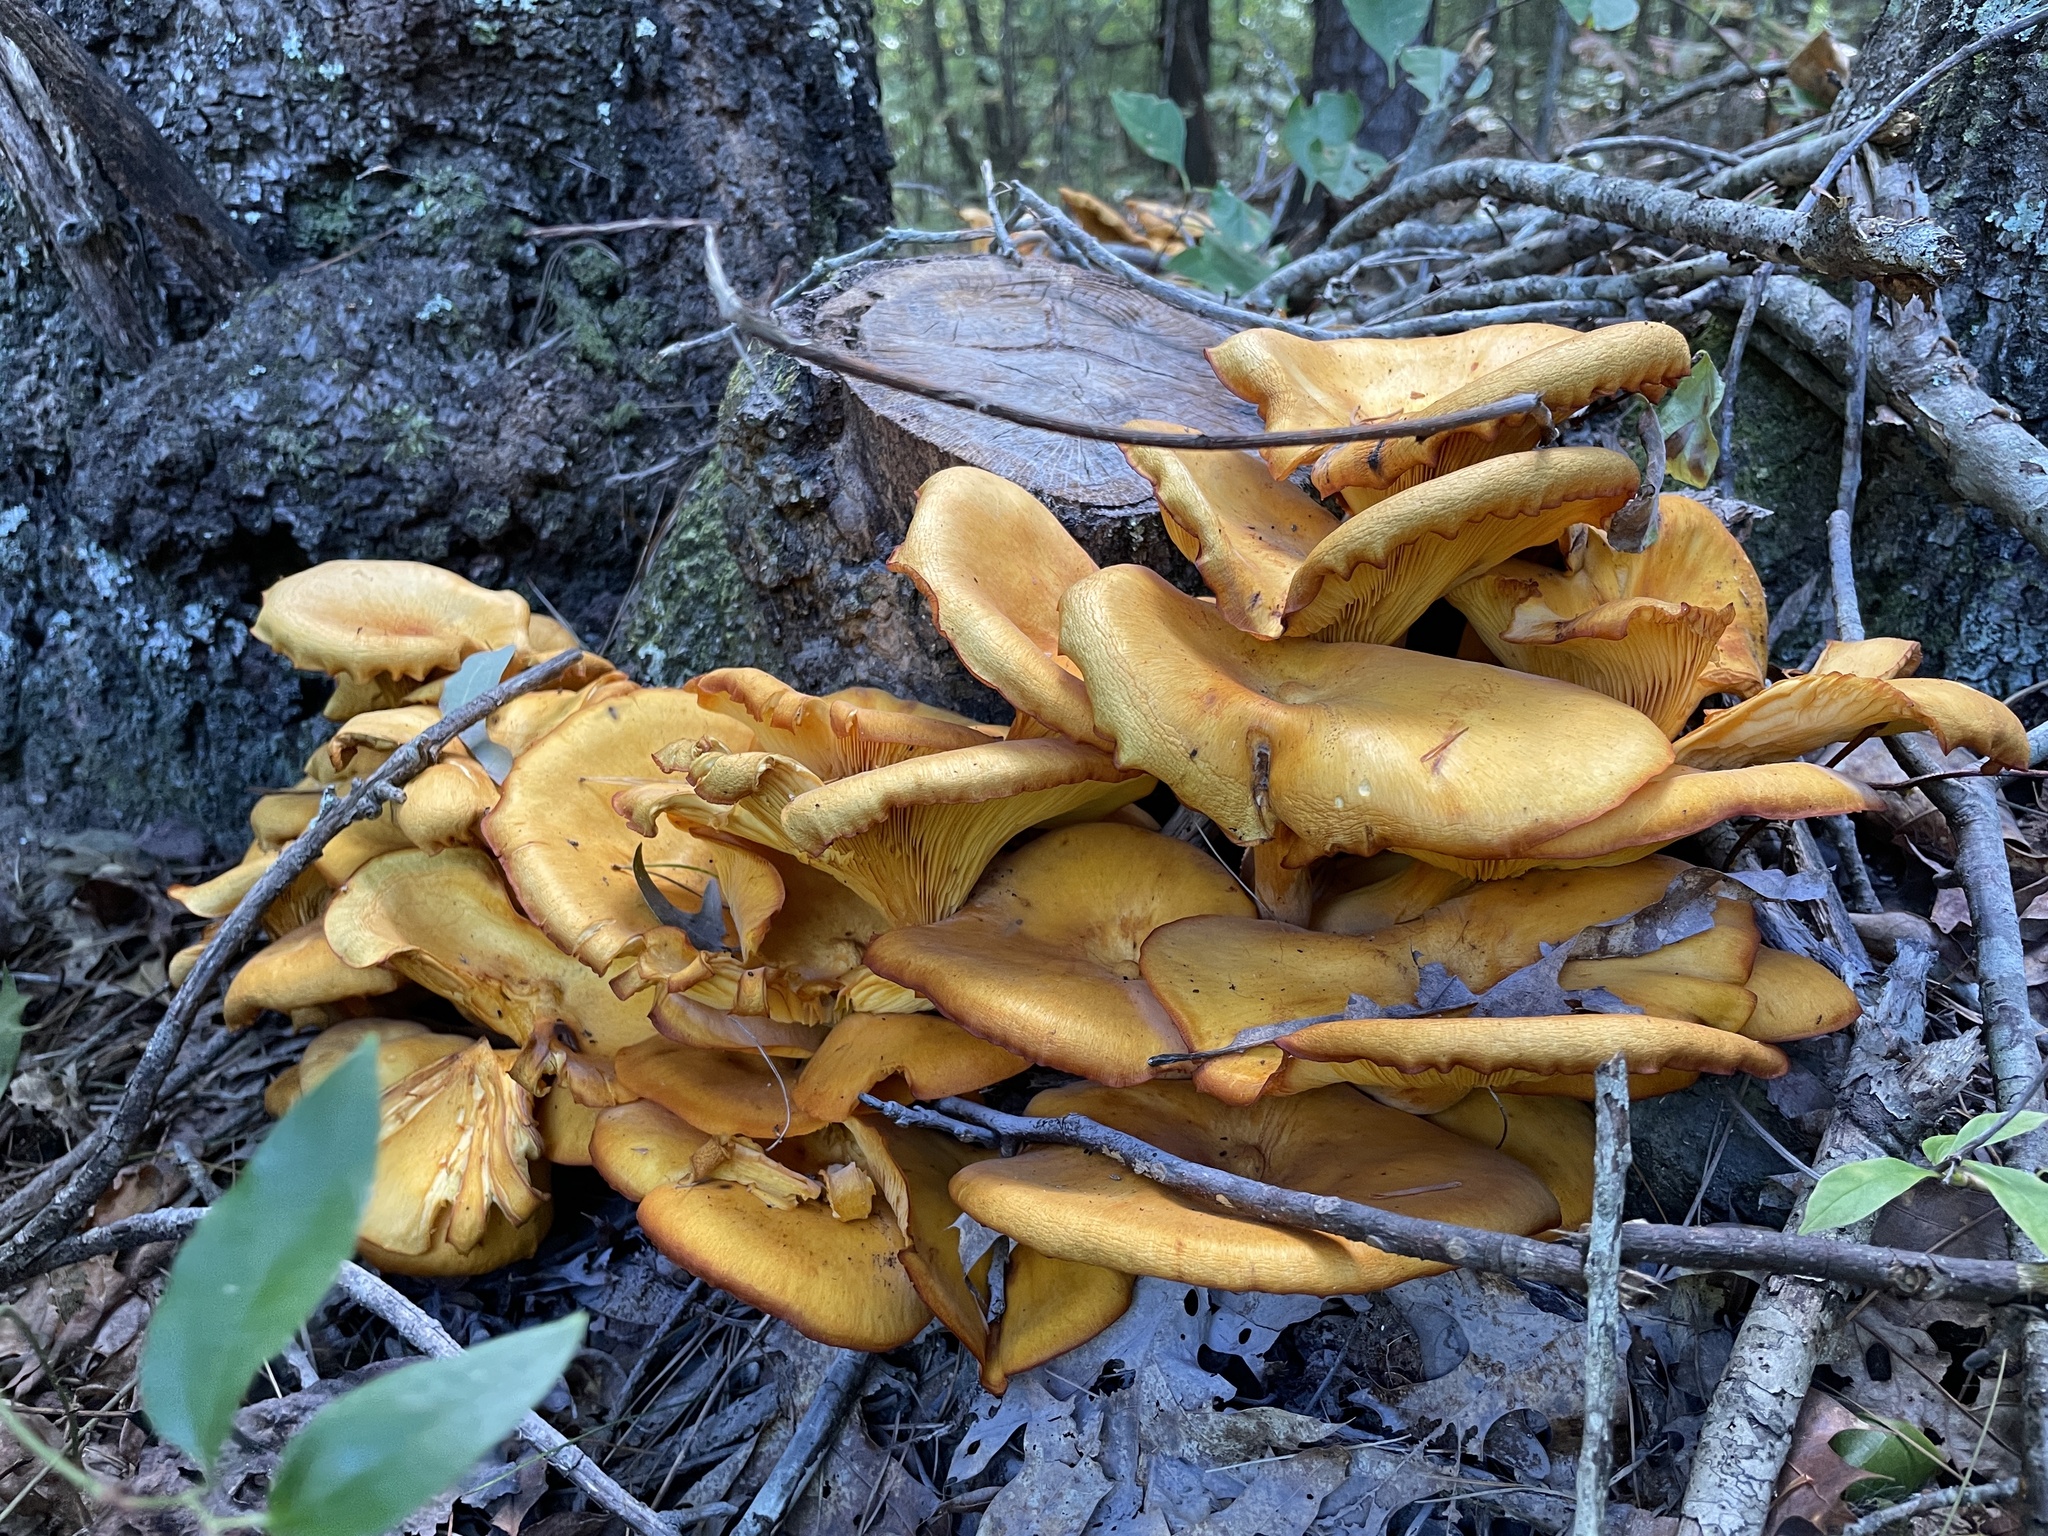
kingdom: Fungi
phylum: Basidiomycota
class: Agaricomycetes
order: Agaricales
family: Omphalotaceae
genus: Omphalotus
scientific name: Omphalotus illudens
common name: Jack o lantern
